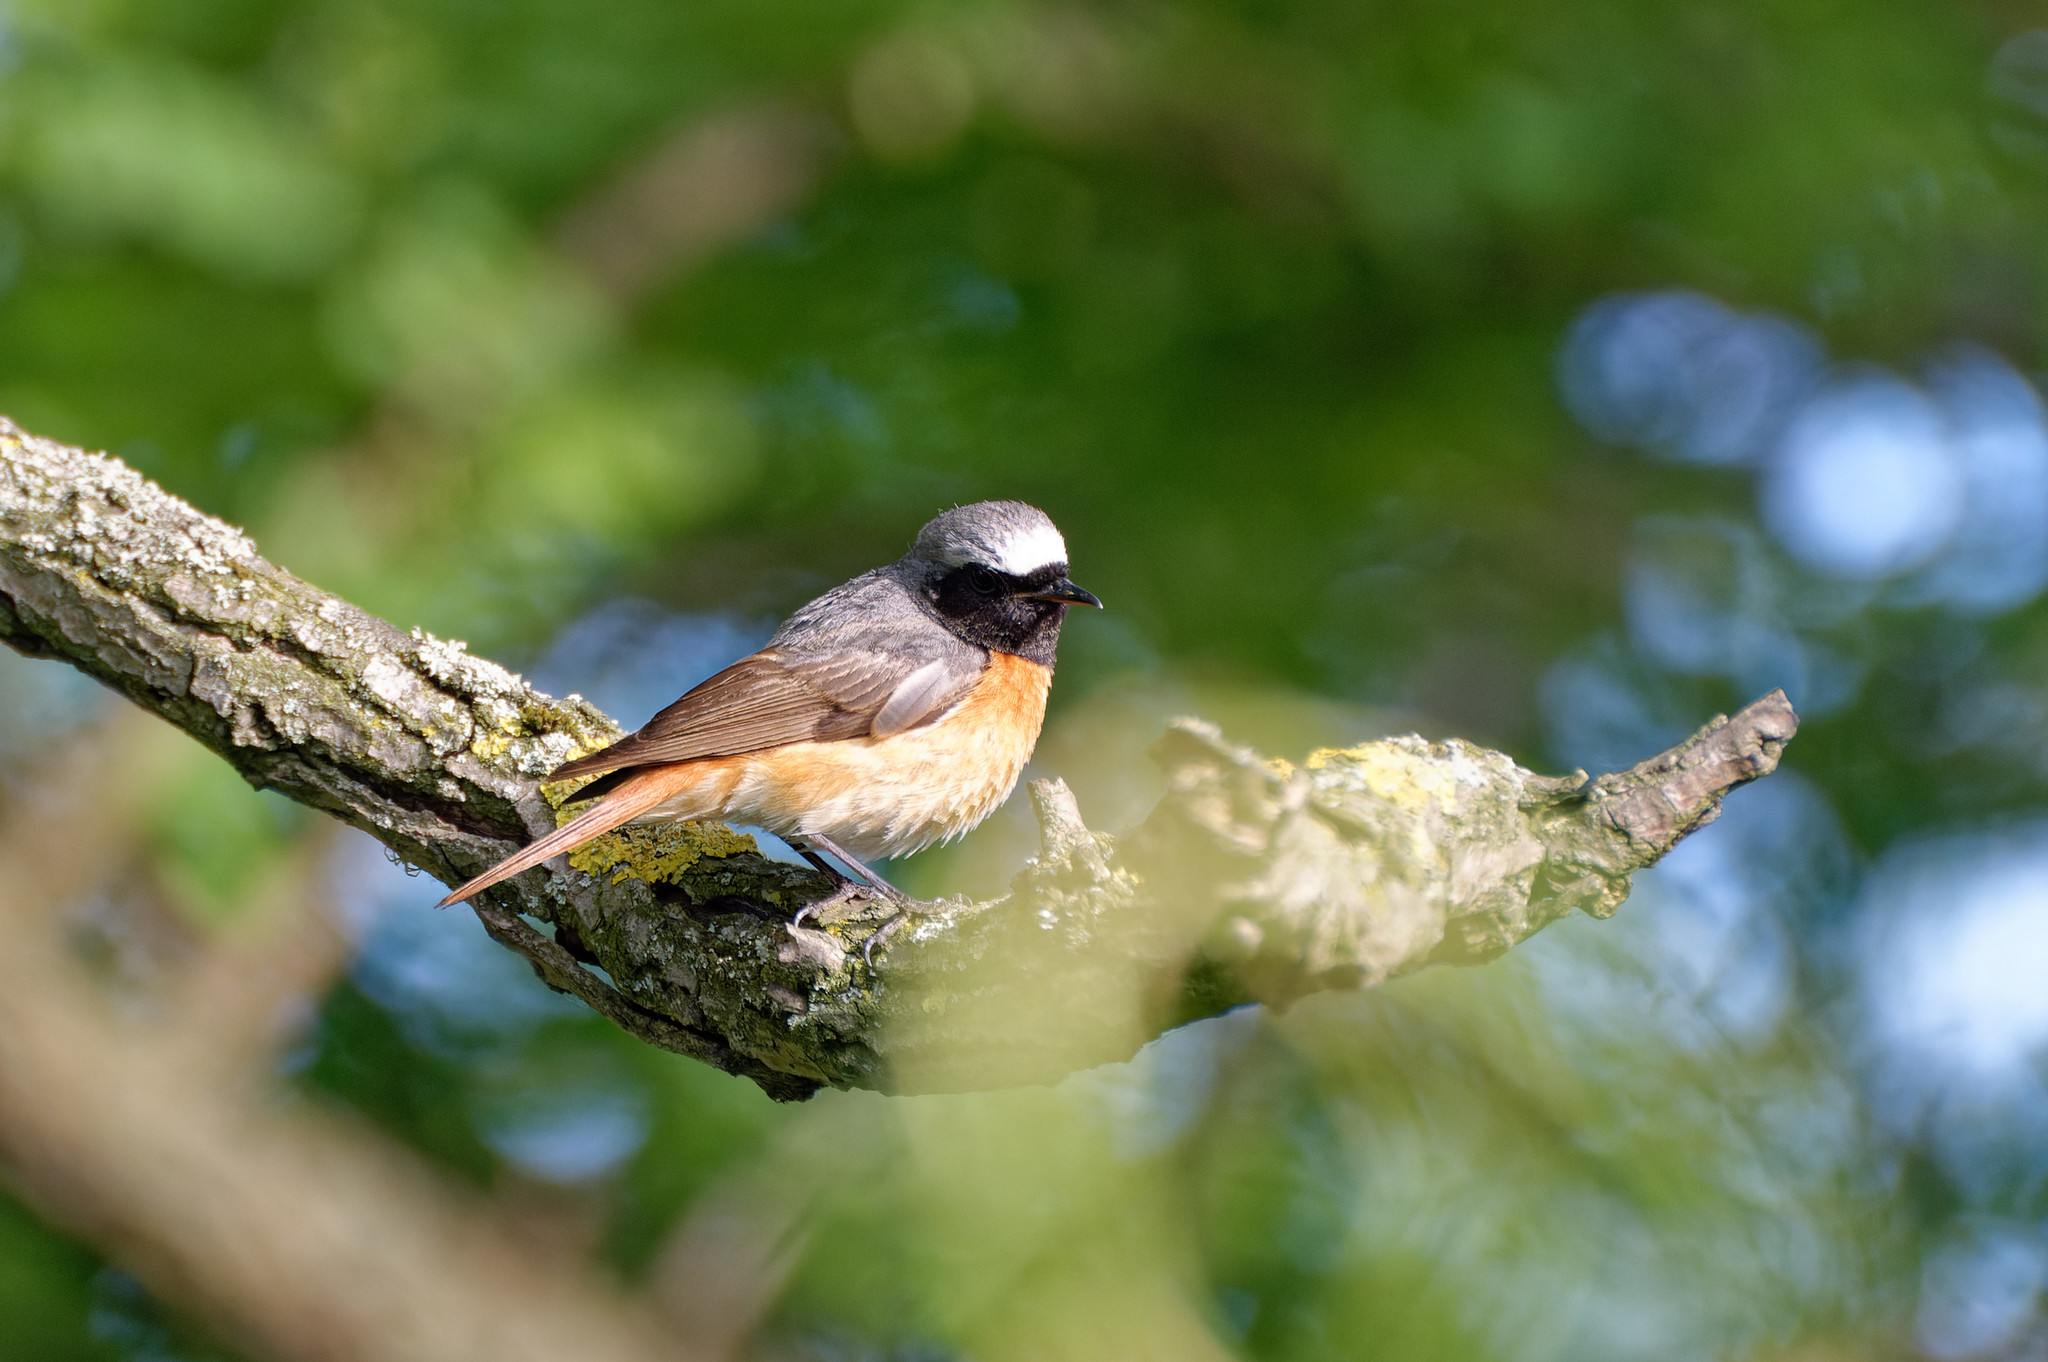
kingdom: Animalia
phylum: Chordata
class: Aves
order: Passeriformes
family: Muscicapidae
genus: Phoenicurus
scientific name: Phoenicurus phoenicurus
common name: Common redstart
